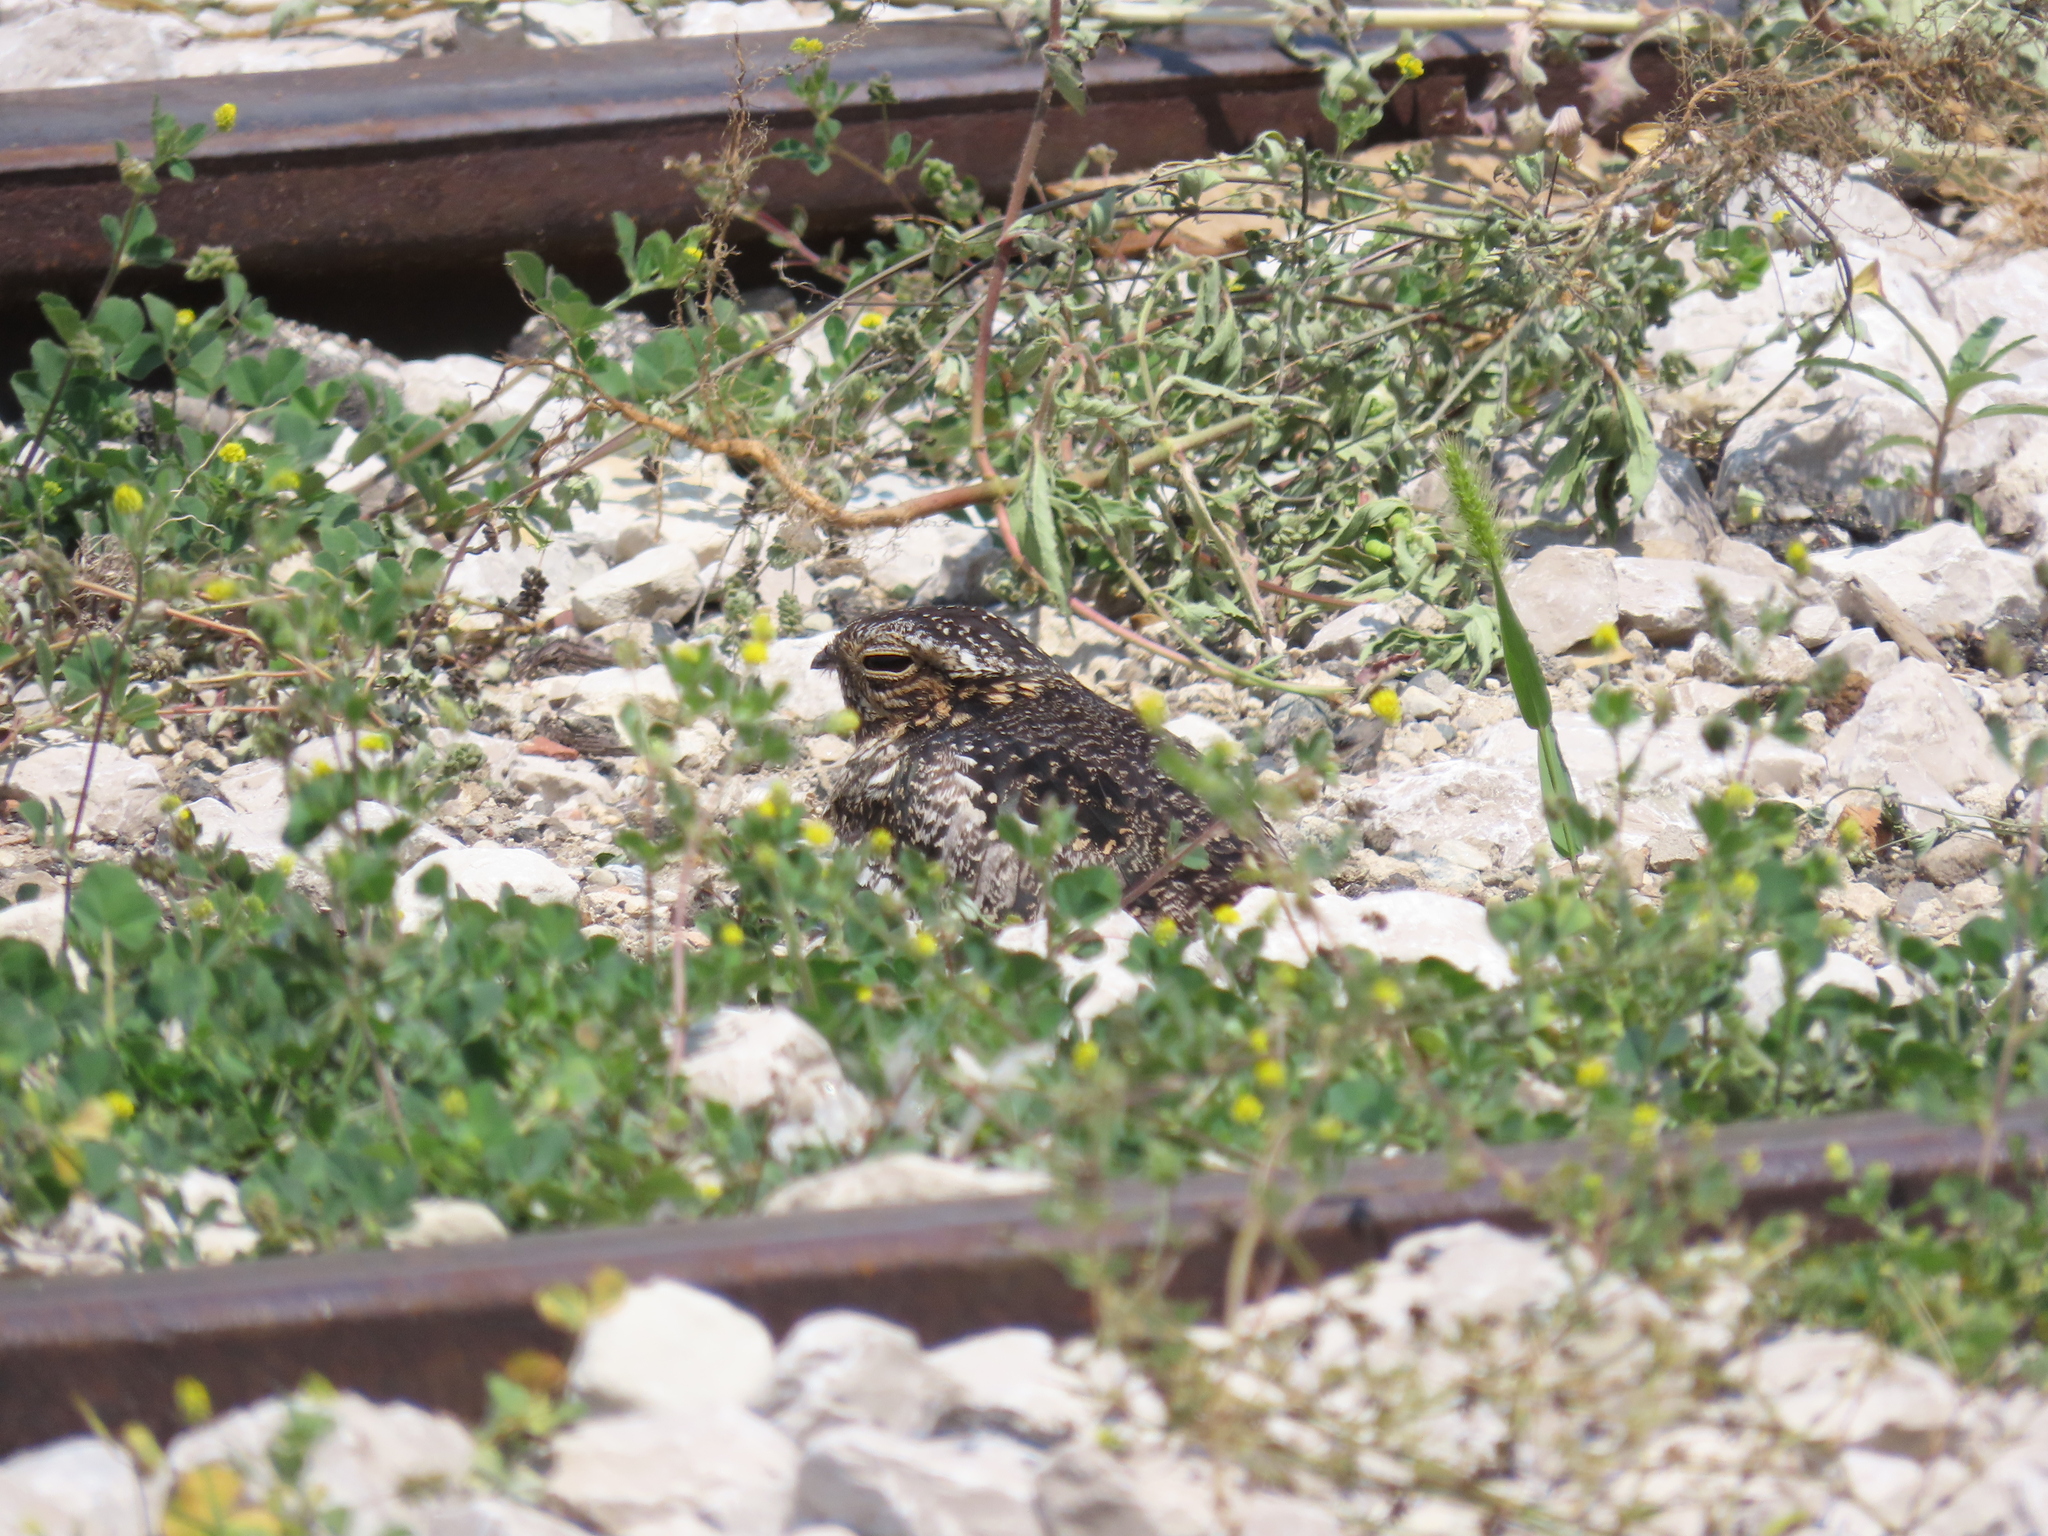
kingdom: Animalia
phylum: Chordata
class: Aves
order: Caprimulgiformes
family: Caprimulgidae
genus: Chordeiles
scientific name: Chordeiles minor
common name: Common nighthawk
